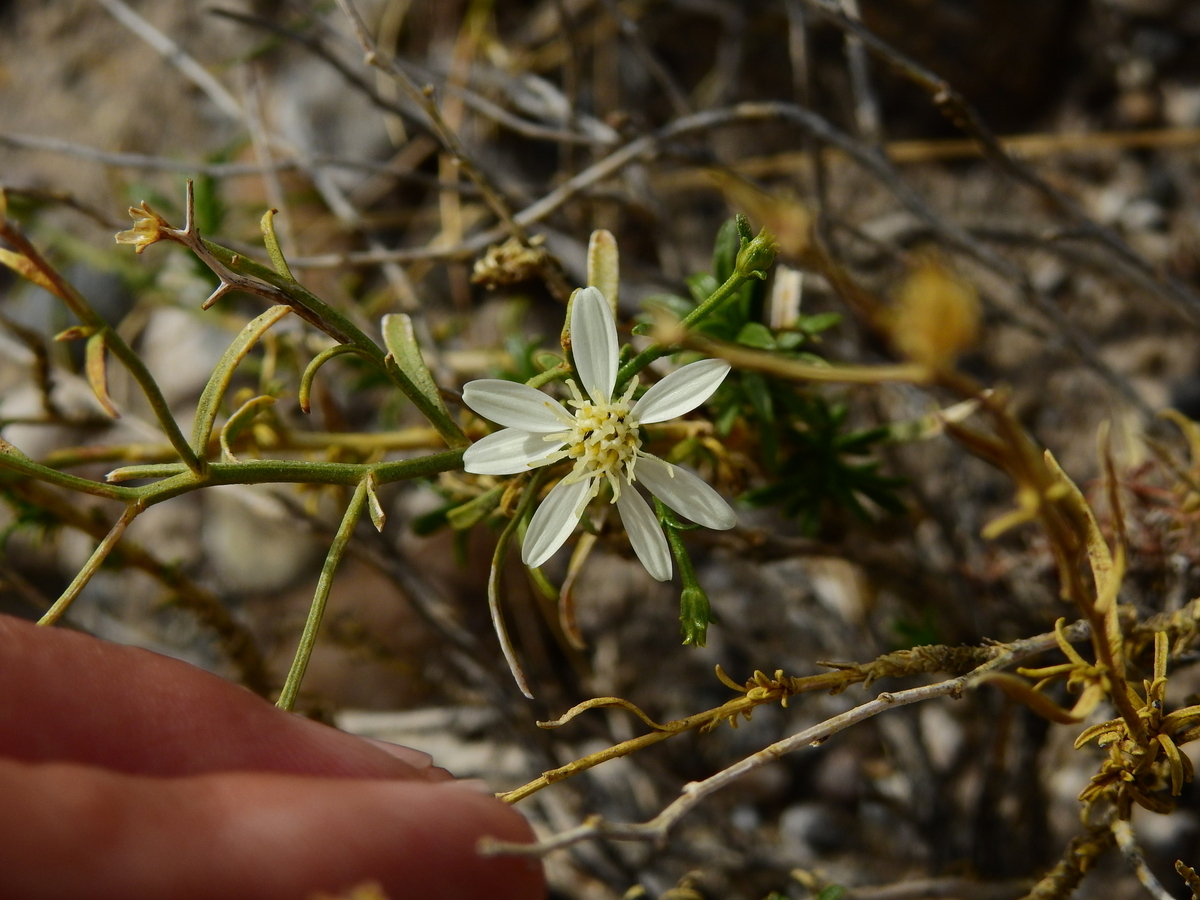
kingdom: Plantae
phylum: Tracheophyta
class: Magnoliopsida
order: Asterales
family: Asteraceae
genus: Gutierrezia
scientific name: Gutierrezia solbrigii
